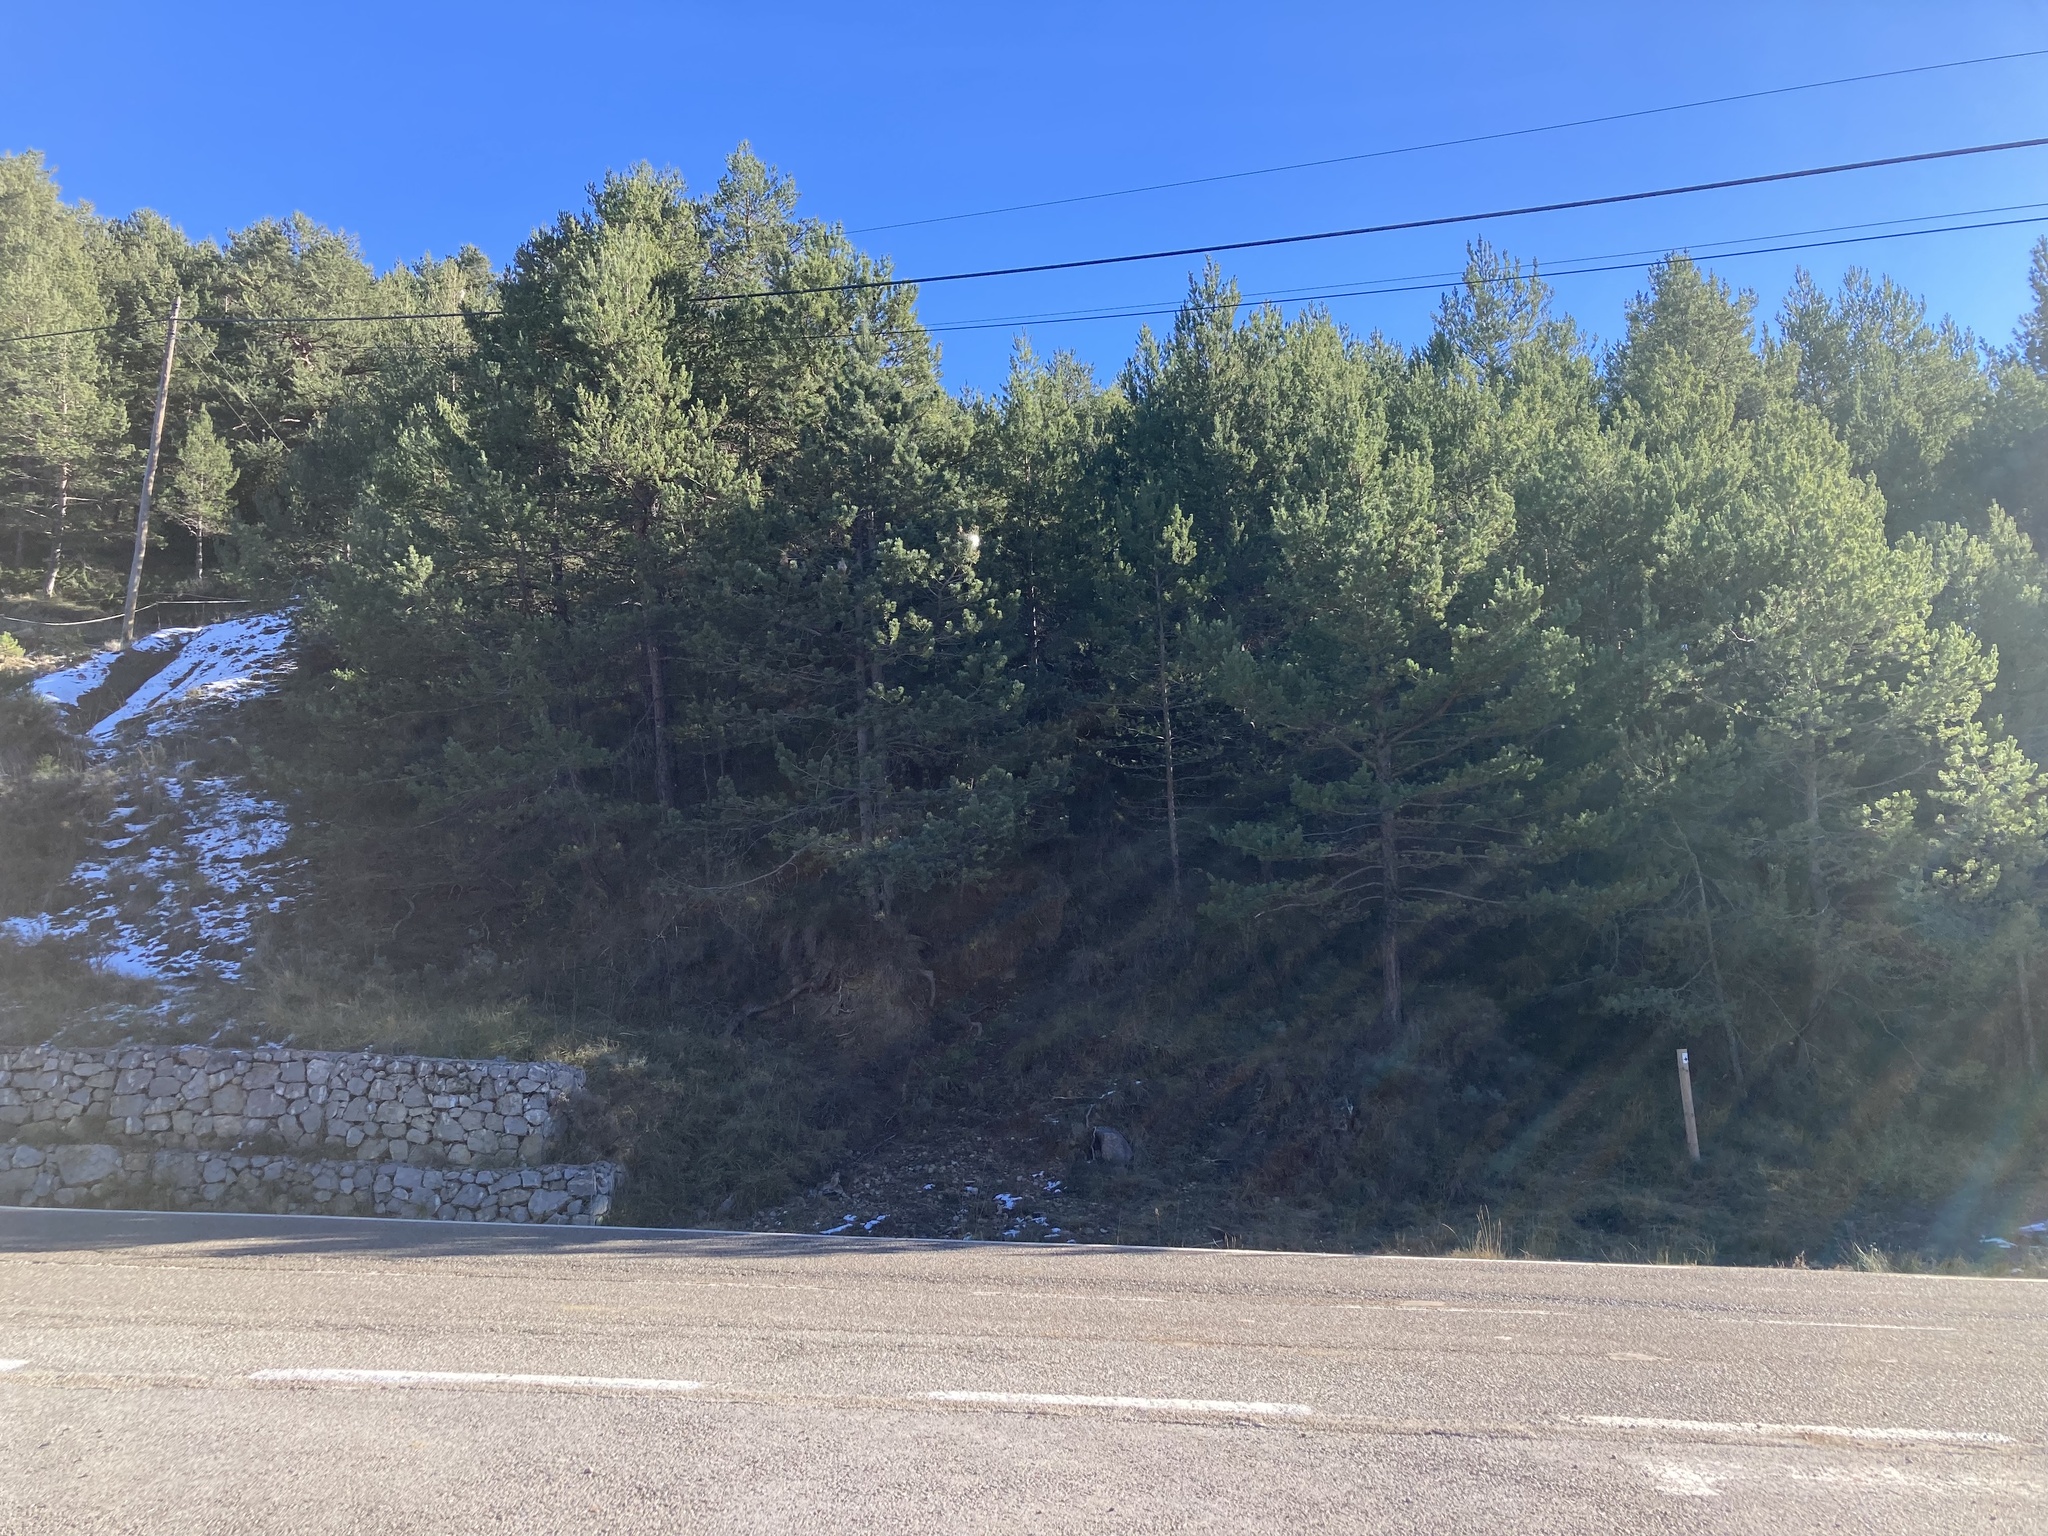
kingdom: Animalia
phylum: Arthropoda
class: Insecta
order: Lepidoptera
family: Notodontidae
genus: Thaumetopoea
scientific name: Thaumetopoea pityocampa
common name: Pine processionary
